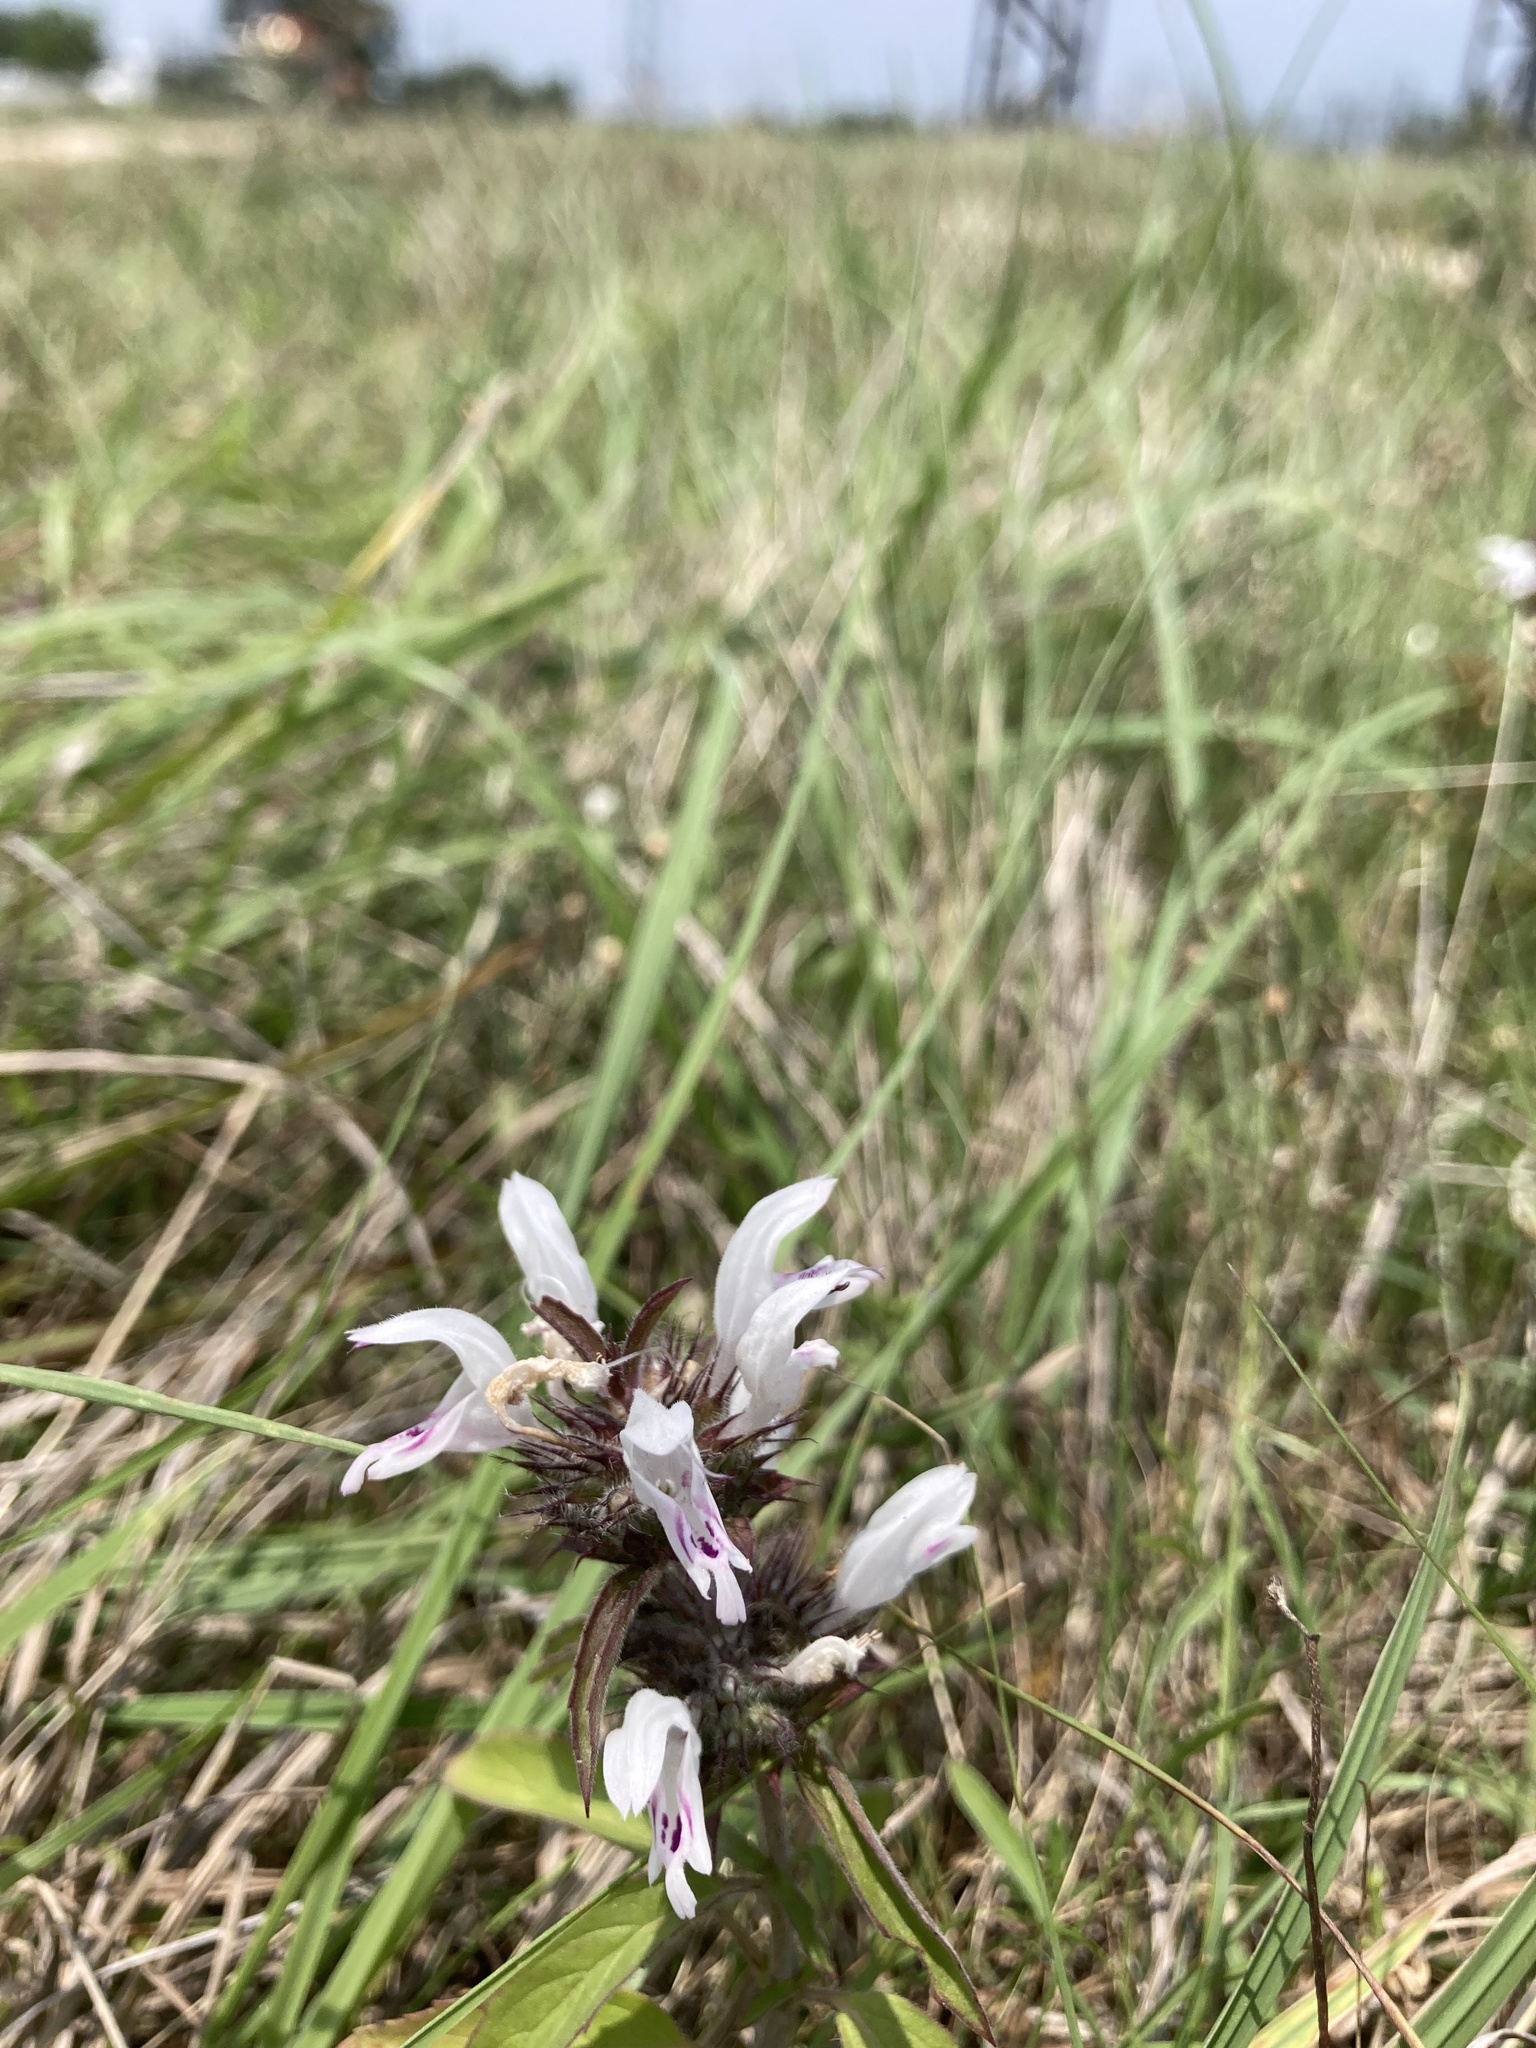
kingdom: Plantae
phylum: Tracheophyta
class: Magnoliopsida
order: Lamiales
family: Lamiaceae
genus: Monarda
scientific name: Monarda clinopodioides
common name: Basil beebalm
